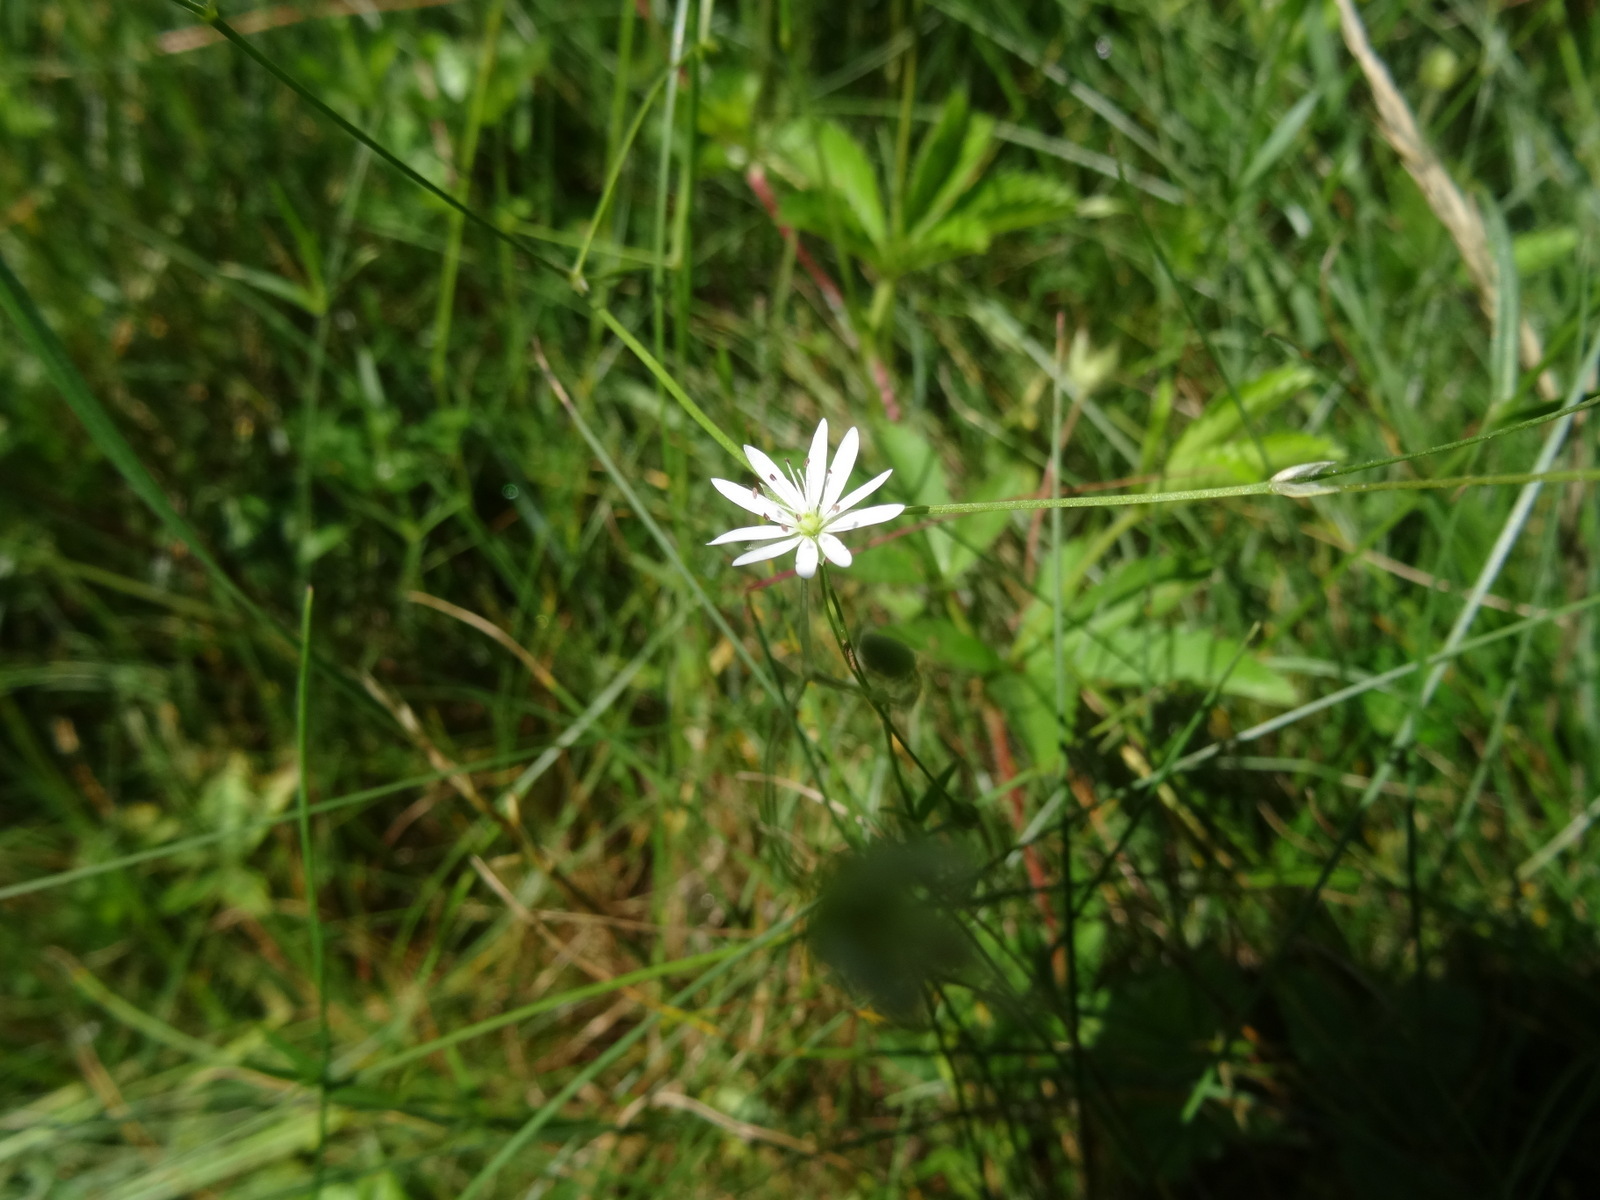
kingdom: Plantae
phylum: Tracheophyta
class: Magnoliopsida
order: Caryophyllales
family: Caryophyllaceae
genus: Stellaria
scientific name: Stellaria graminea
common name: Grass-like starwort
